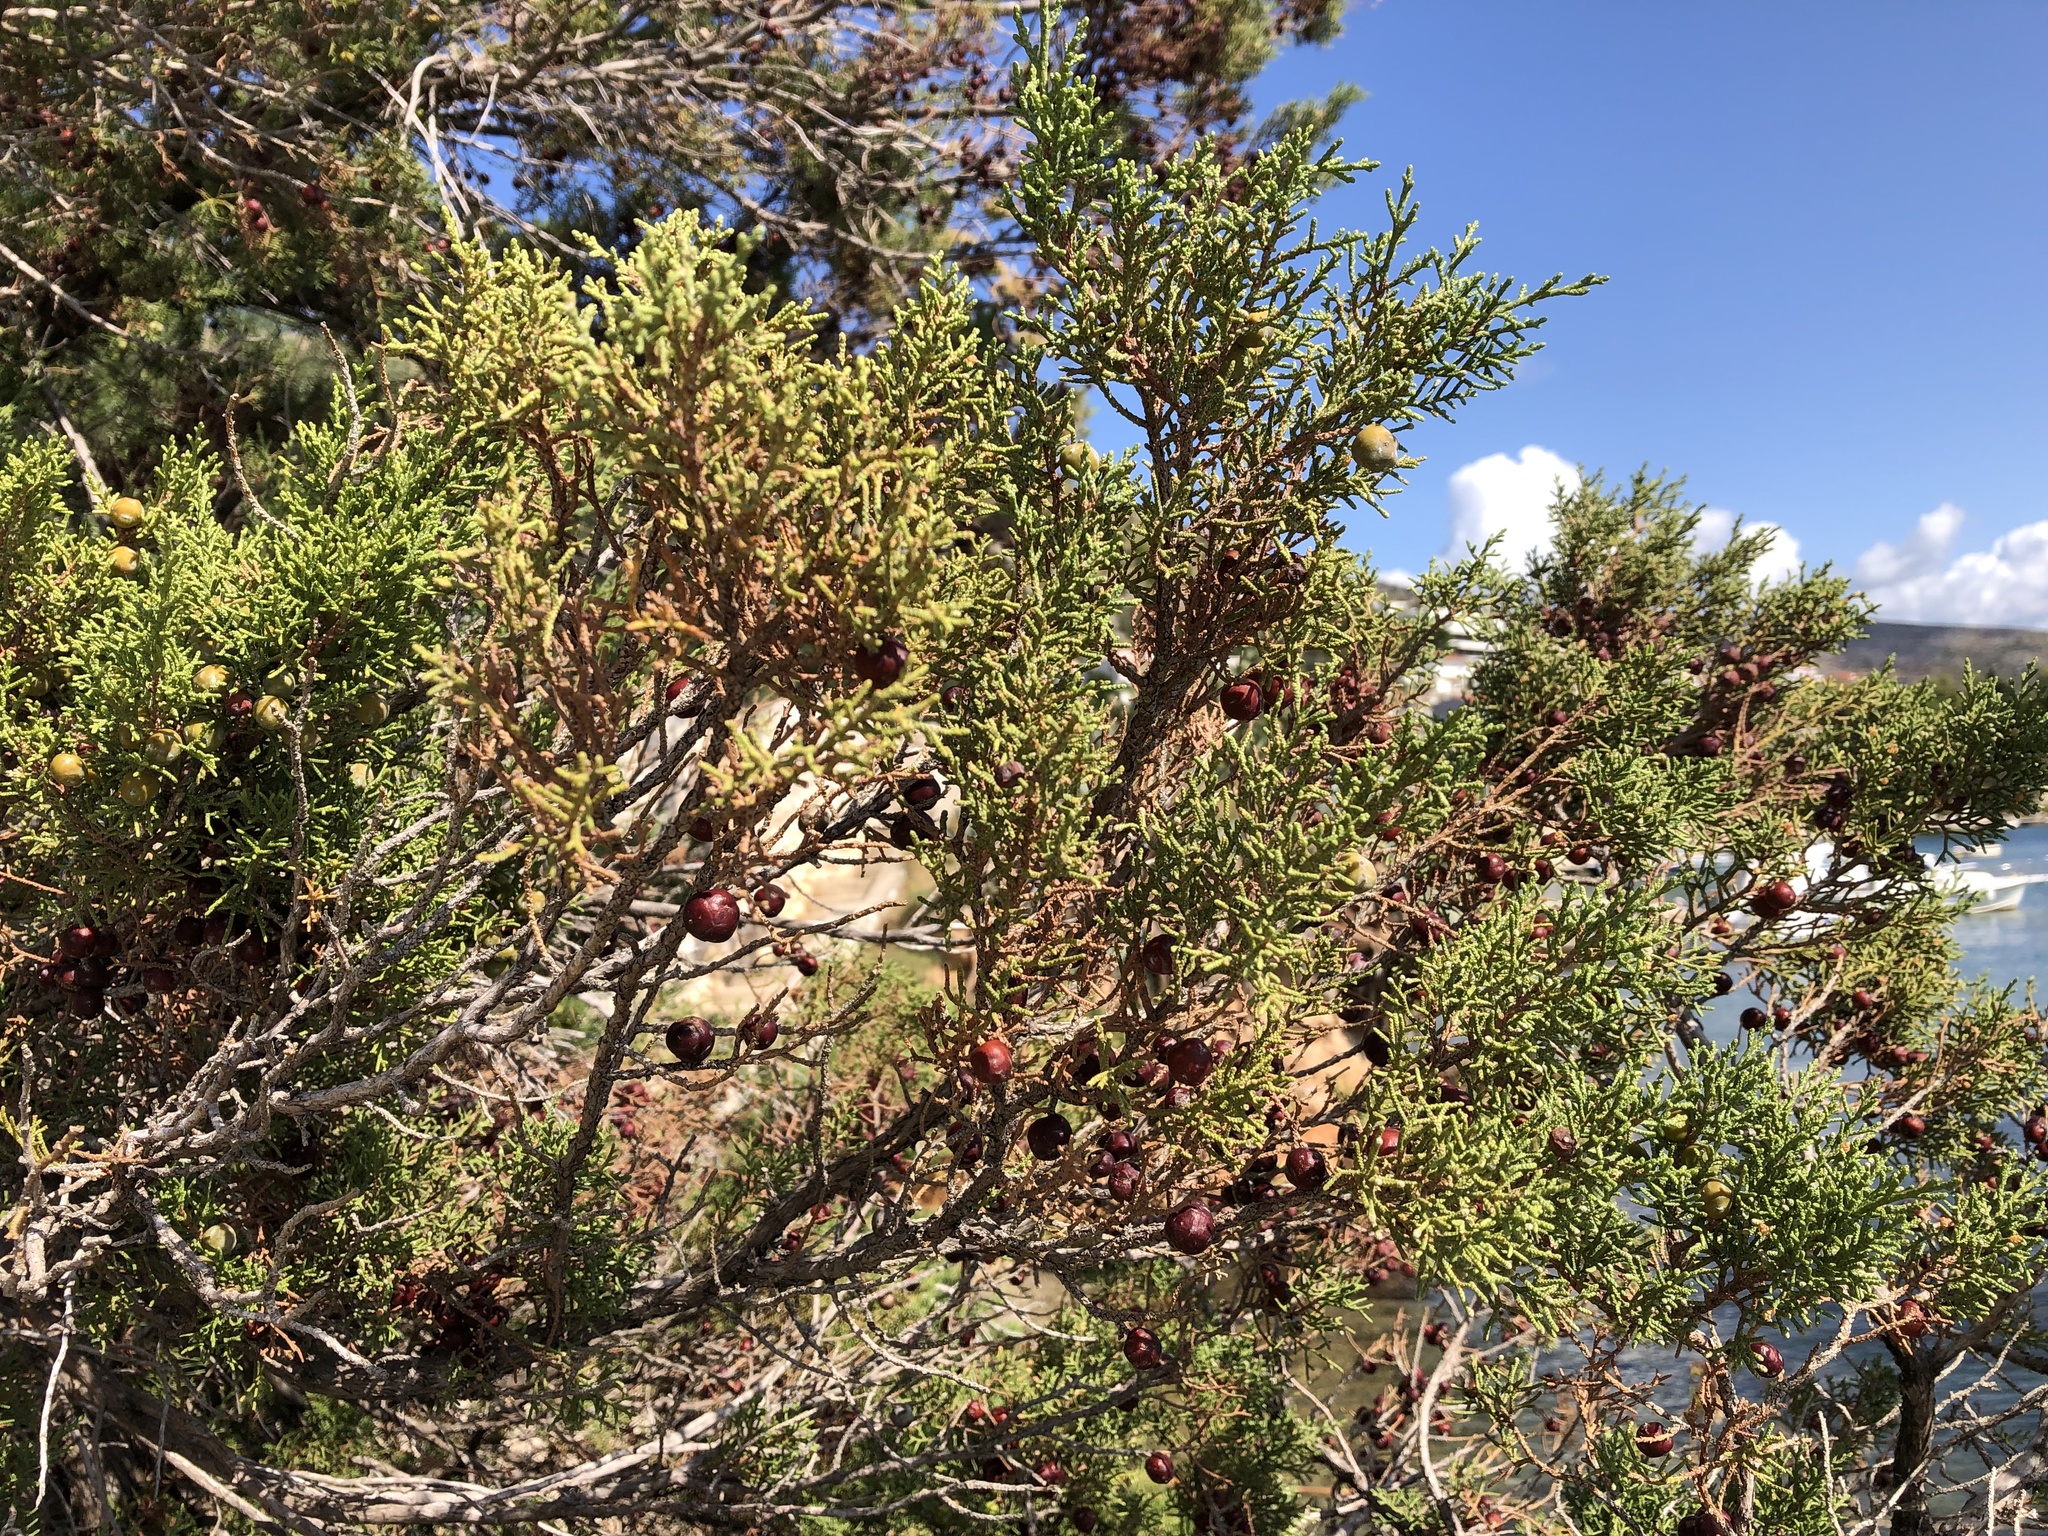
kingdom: Plantae
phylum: Tracheophyta
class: Pinopsida
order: Pinales
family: Cupressaceae
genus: Juniperus
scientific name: Juniperus phoenicea
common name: Phoenician juniper
